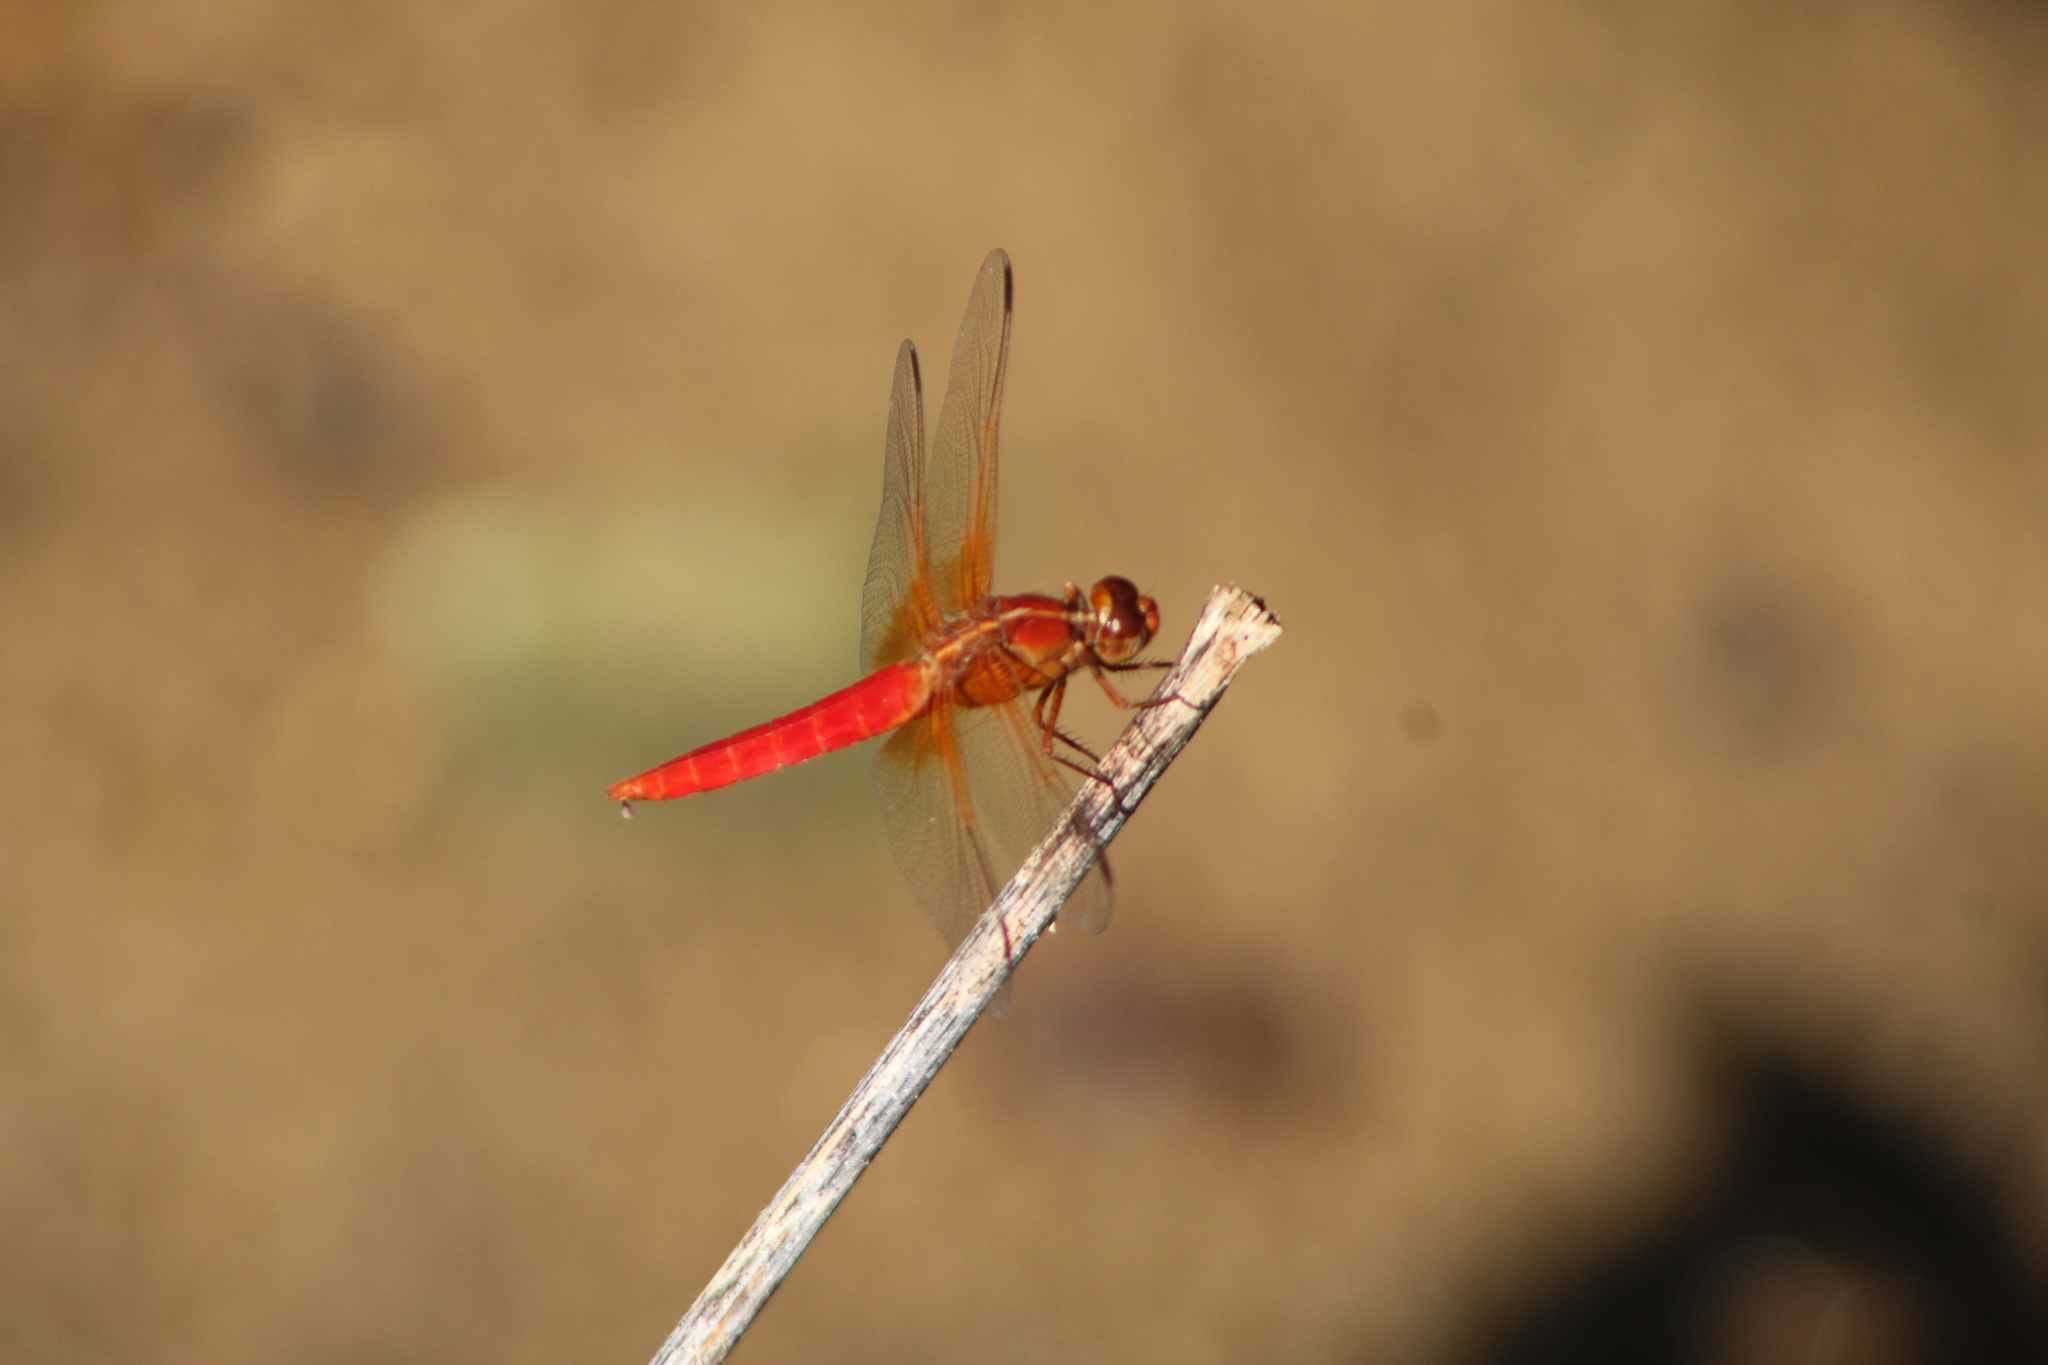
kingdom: Animalia
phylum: Arthropoda
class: Insecta
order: Odonata
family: Libellulidae
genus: Libellula
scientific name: Libellula croceipennis
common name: Neon skimmer
